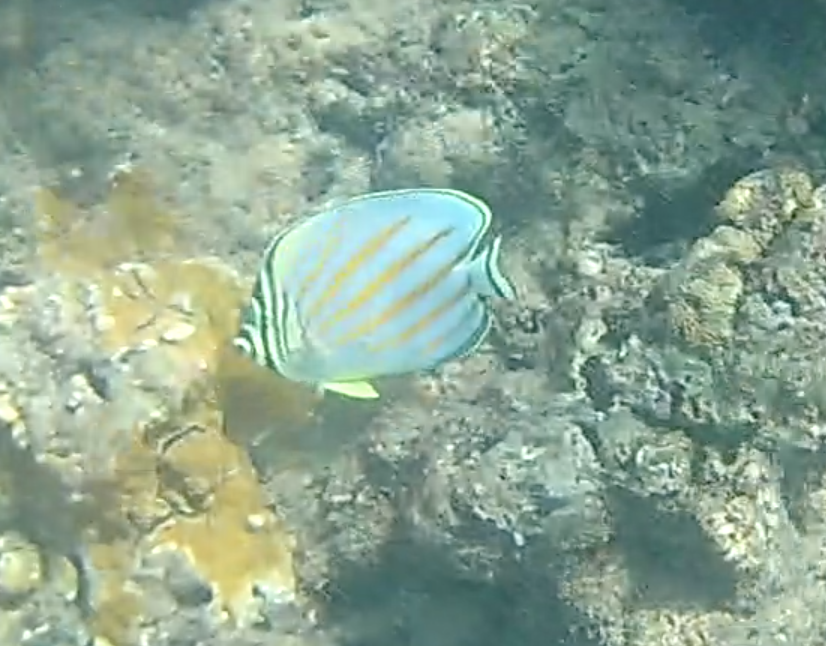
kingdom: Animalia
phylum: Chordata
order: Perciformes
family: Chaetodontidae
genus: Chaetodon
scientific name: Chaetodon ornatissimus
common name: Ornate butterflyfish
